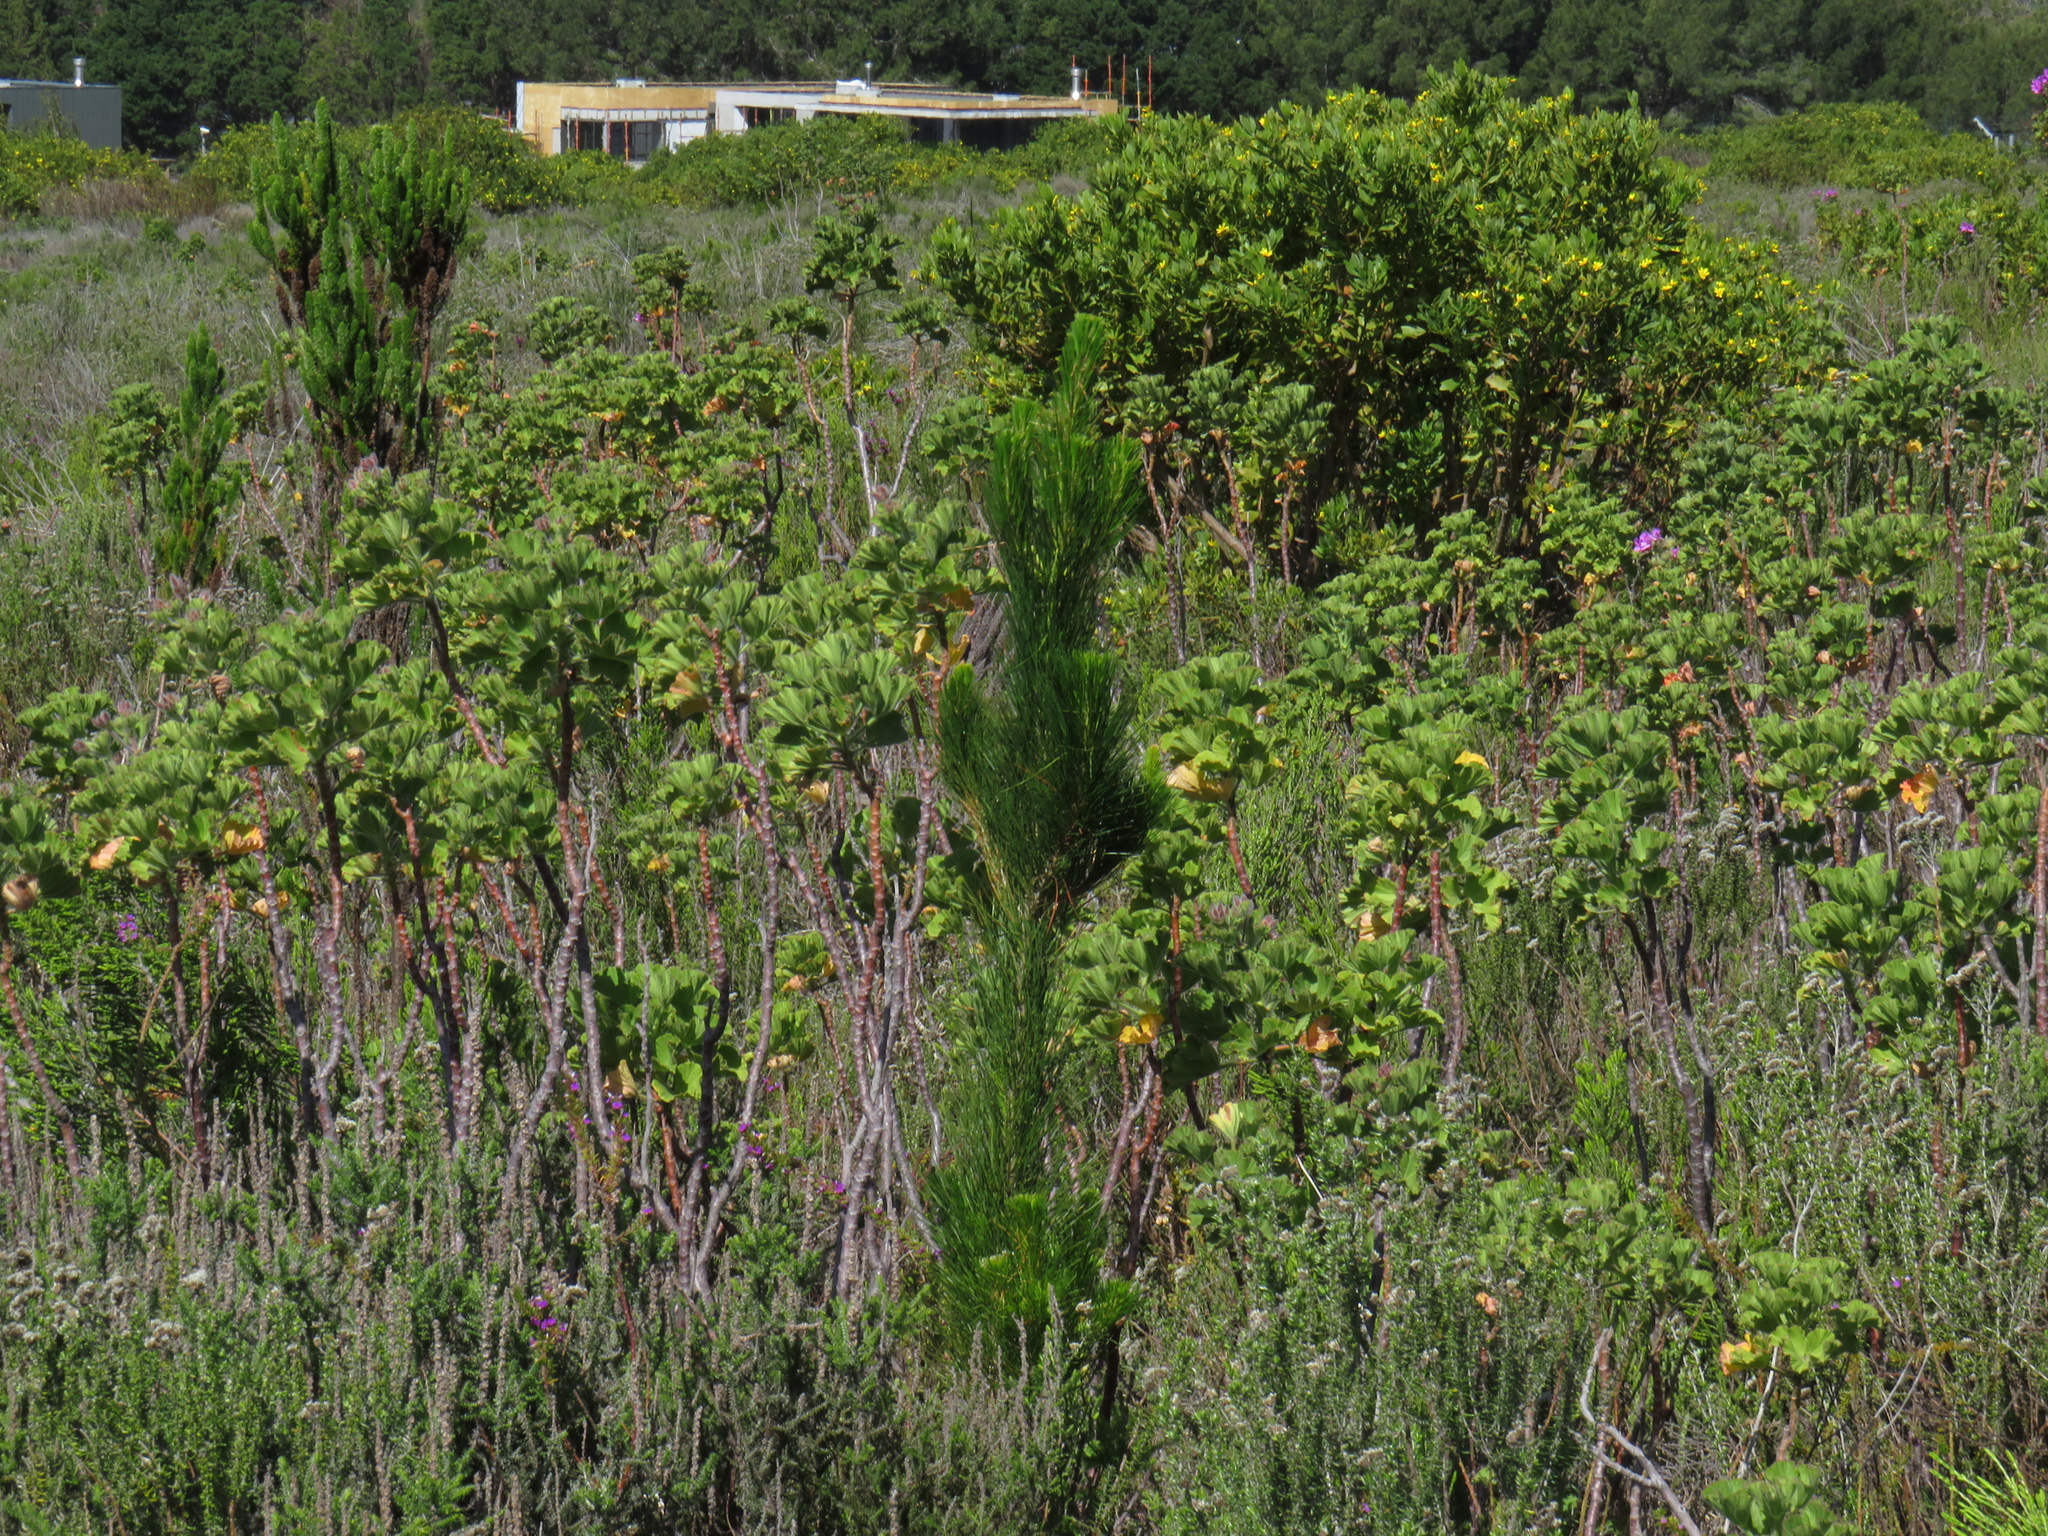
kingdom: Plantae
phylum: Tracheophyta
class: Pinopsida
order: Pinales
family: Pinaceae
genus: Pinus
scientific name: Pinus radiata
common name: Monterey pine
